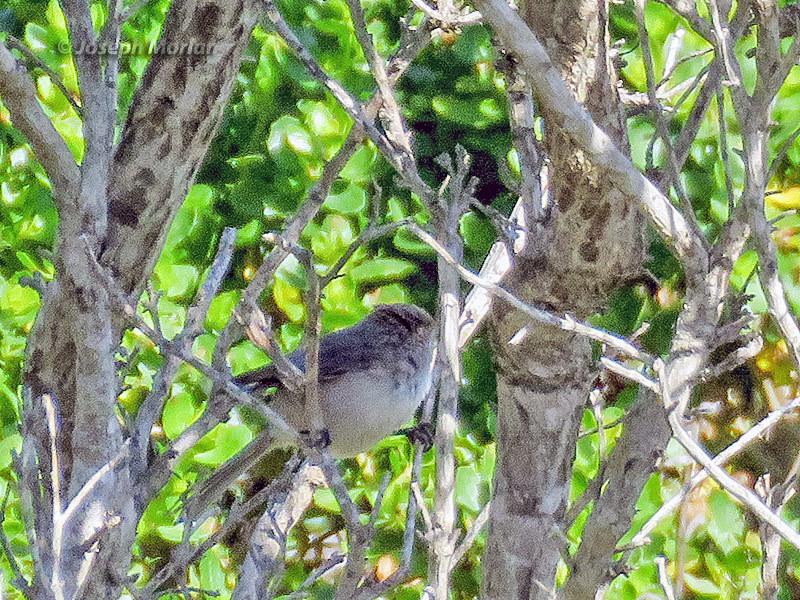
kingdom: Animalia
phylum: Chordata
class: Aves
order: Passeriformes
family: Aegithalidae
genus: Psaltriparus
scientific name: Psaltriparus minimus
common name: American bushtit
